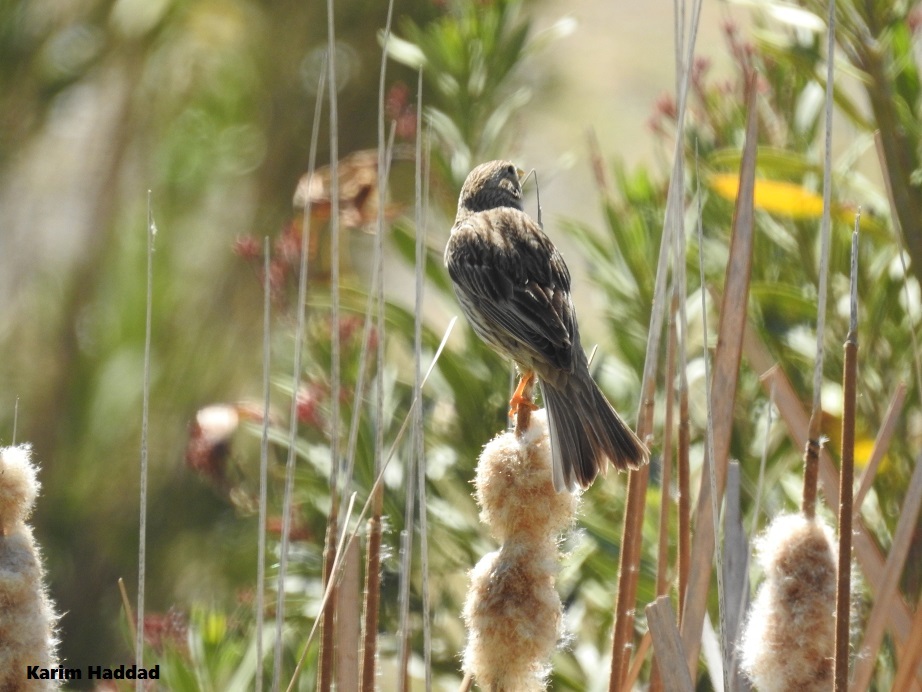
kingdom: Animalia
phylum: Chordata
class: Aves
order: Passeriformes
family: Emberizidae
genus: Emberiza
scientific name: Emberiza calandra
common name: Corn bunting
